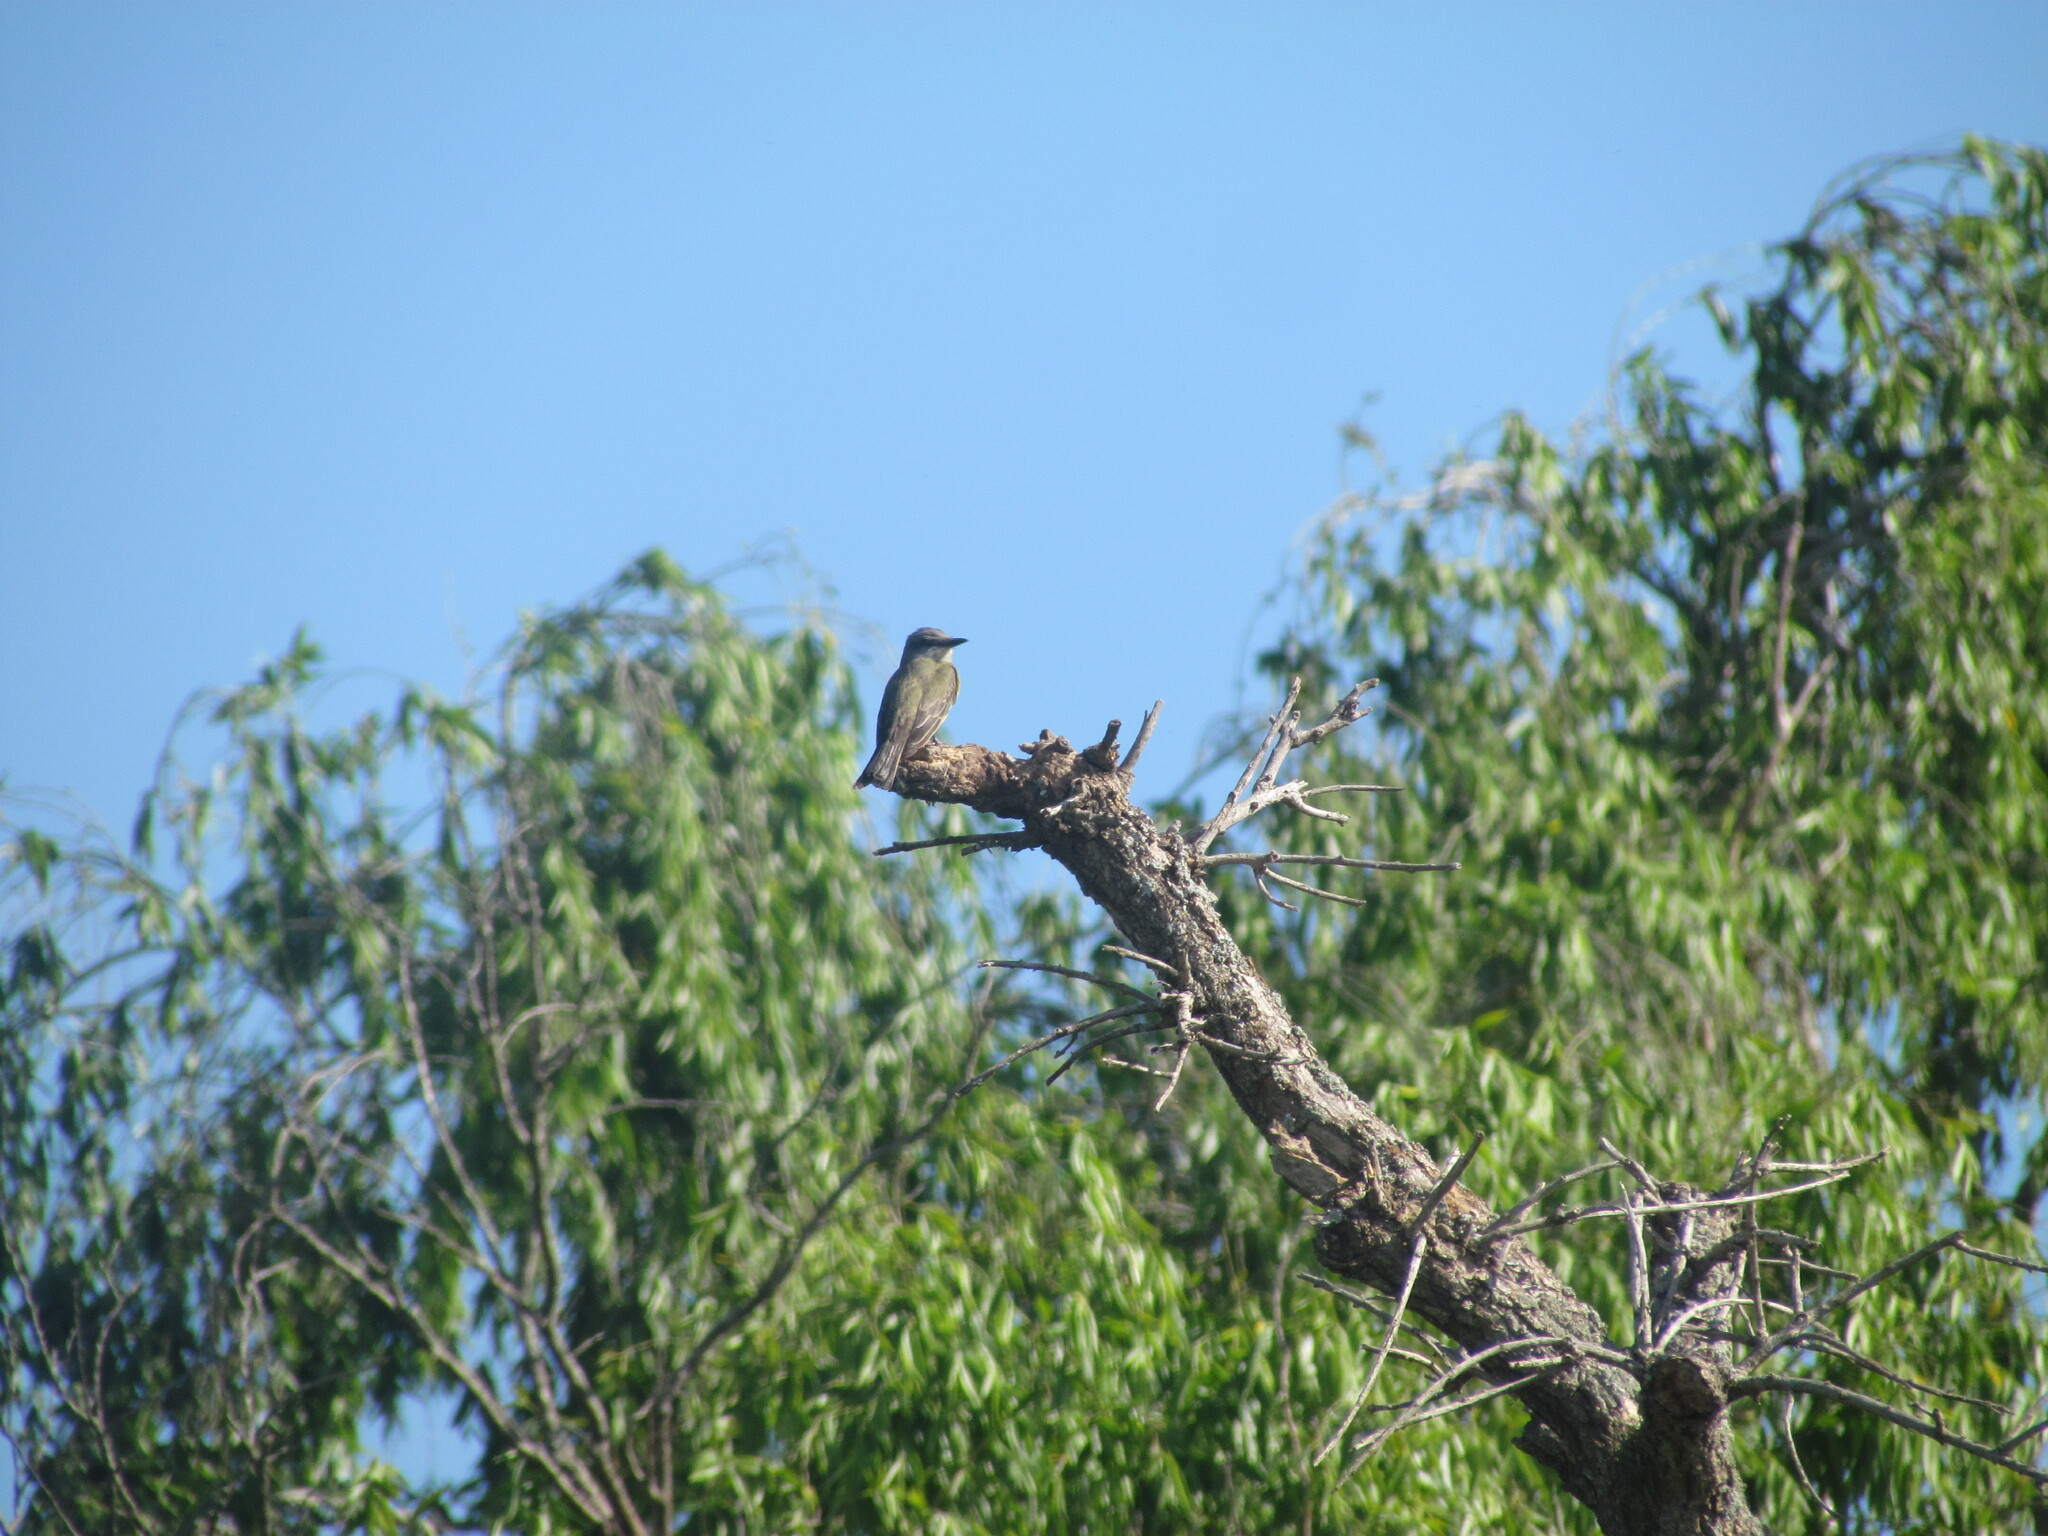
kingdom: Animalia
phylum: Chordata
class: Aves
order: Passeriformes
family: Tyrannidae
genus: Tyrannus
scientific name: Tyrannus melancholicus
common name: Tropical kingbird
